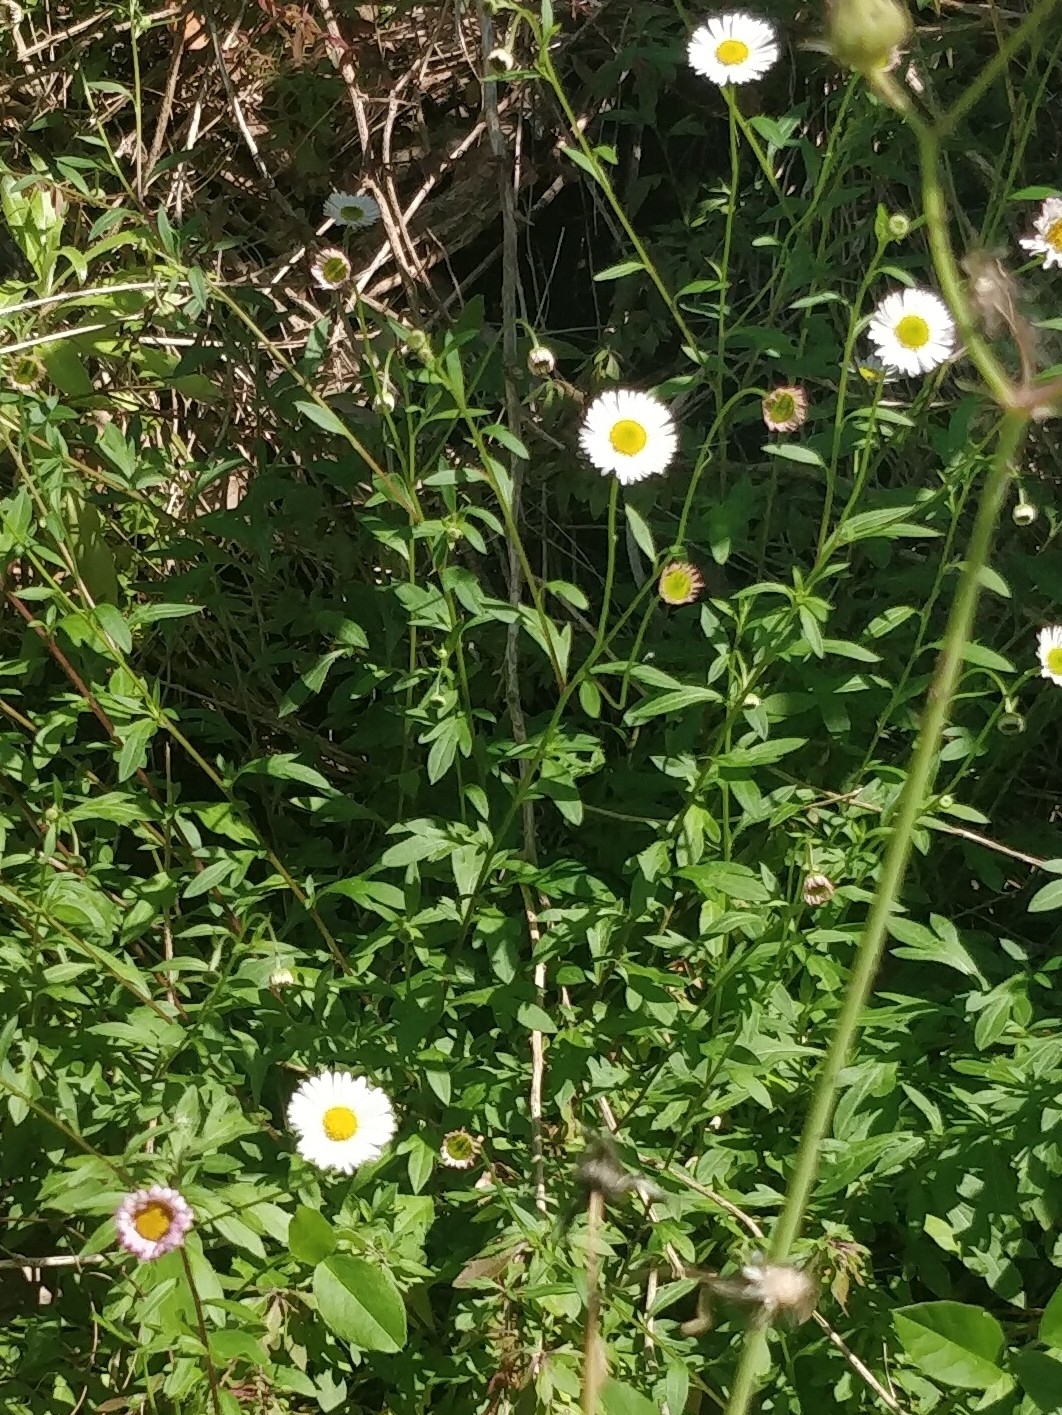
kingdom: Plantae
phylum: Tracheophyta
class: Magnoliopsida
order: Asterales
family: Asteraceae
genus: Erigeron
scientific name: Erigeron karvinskianus
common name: Mexican fleabane
